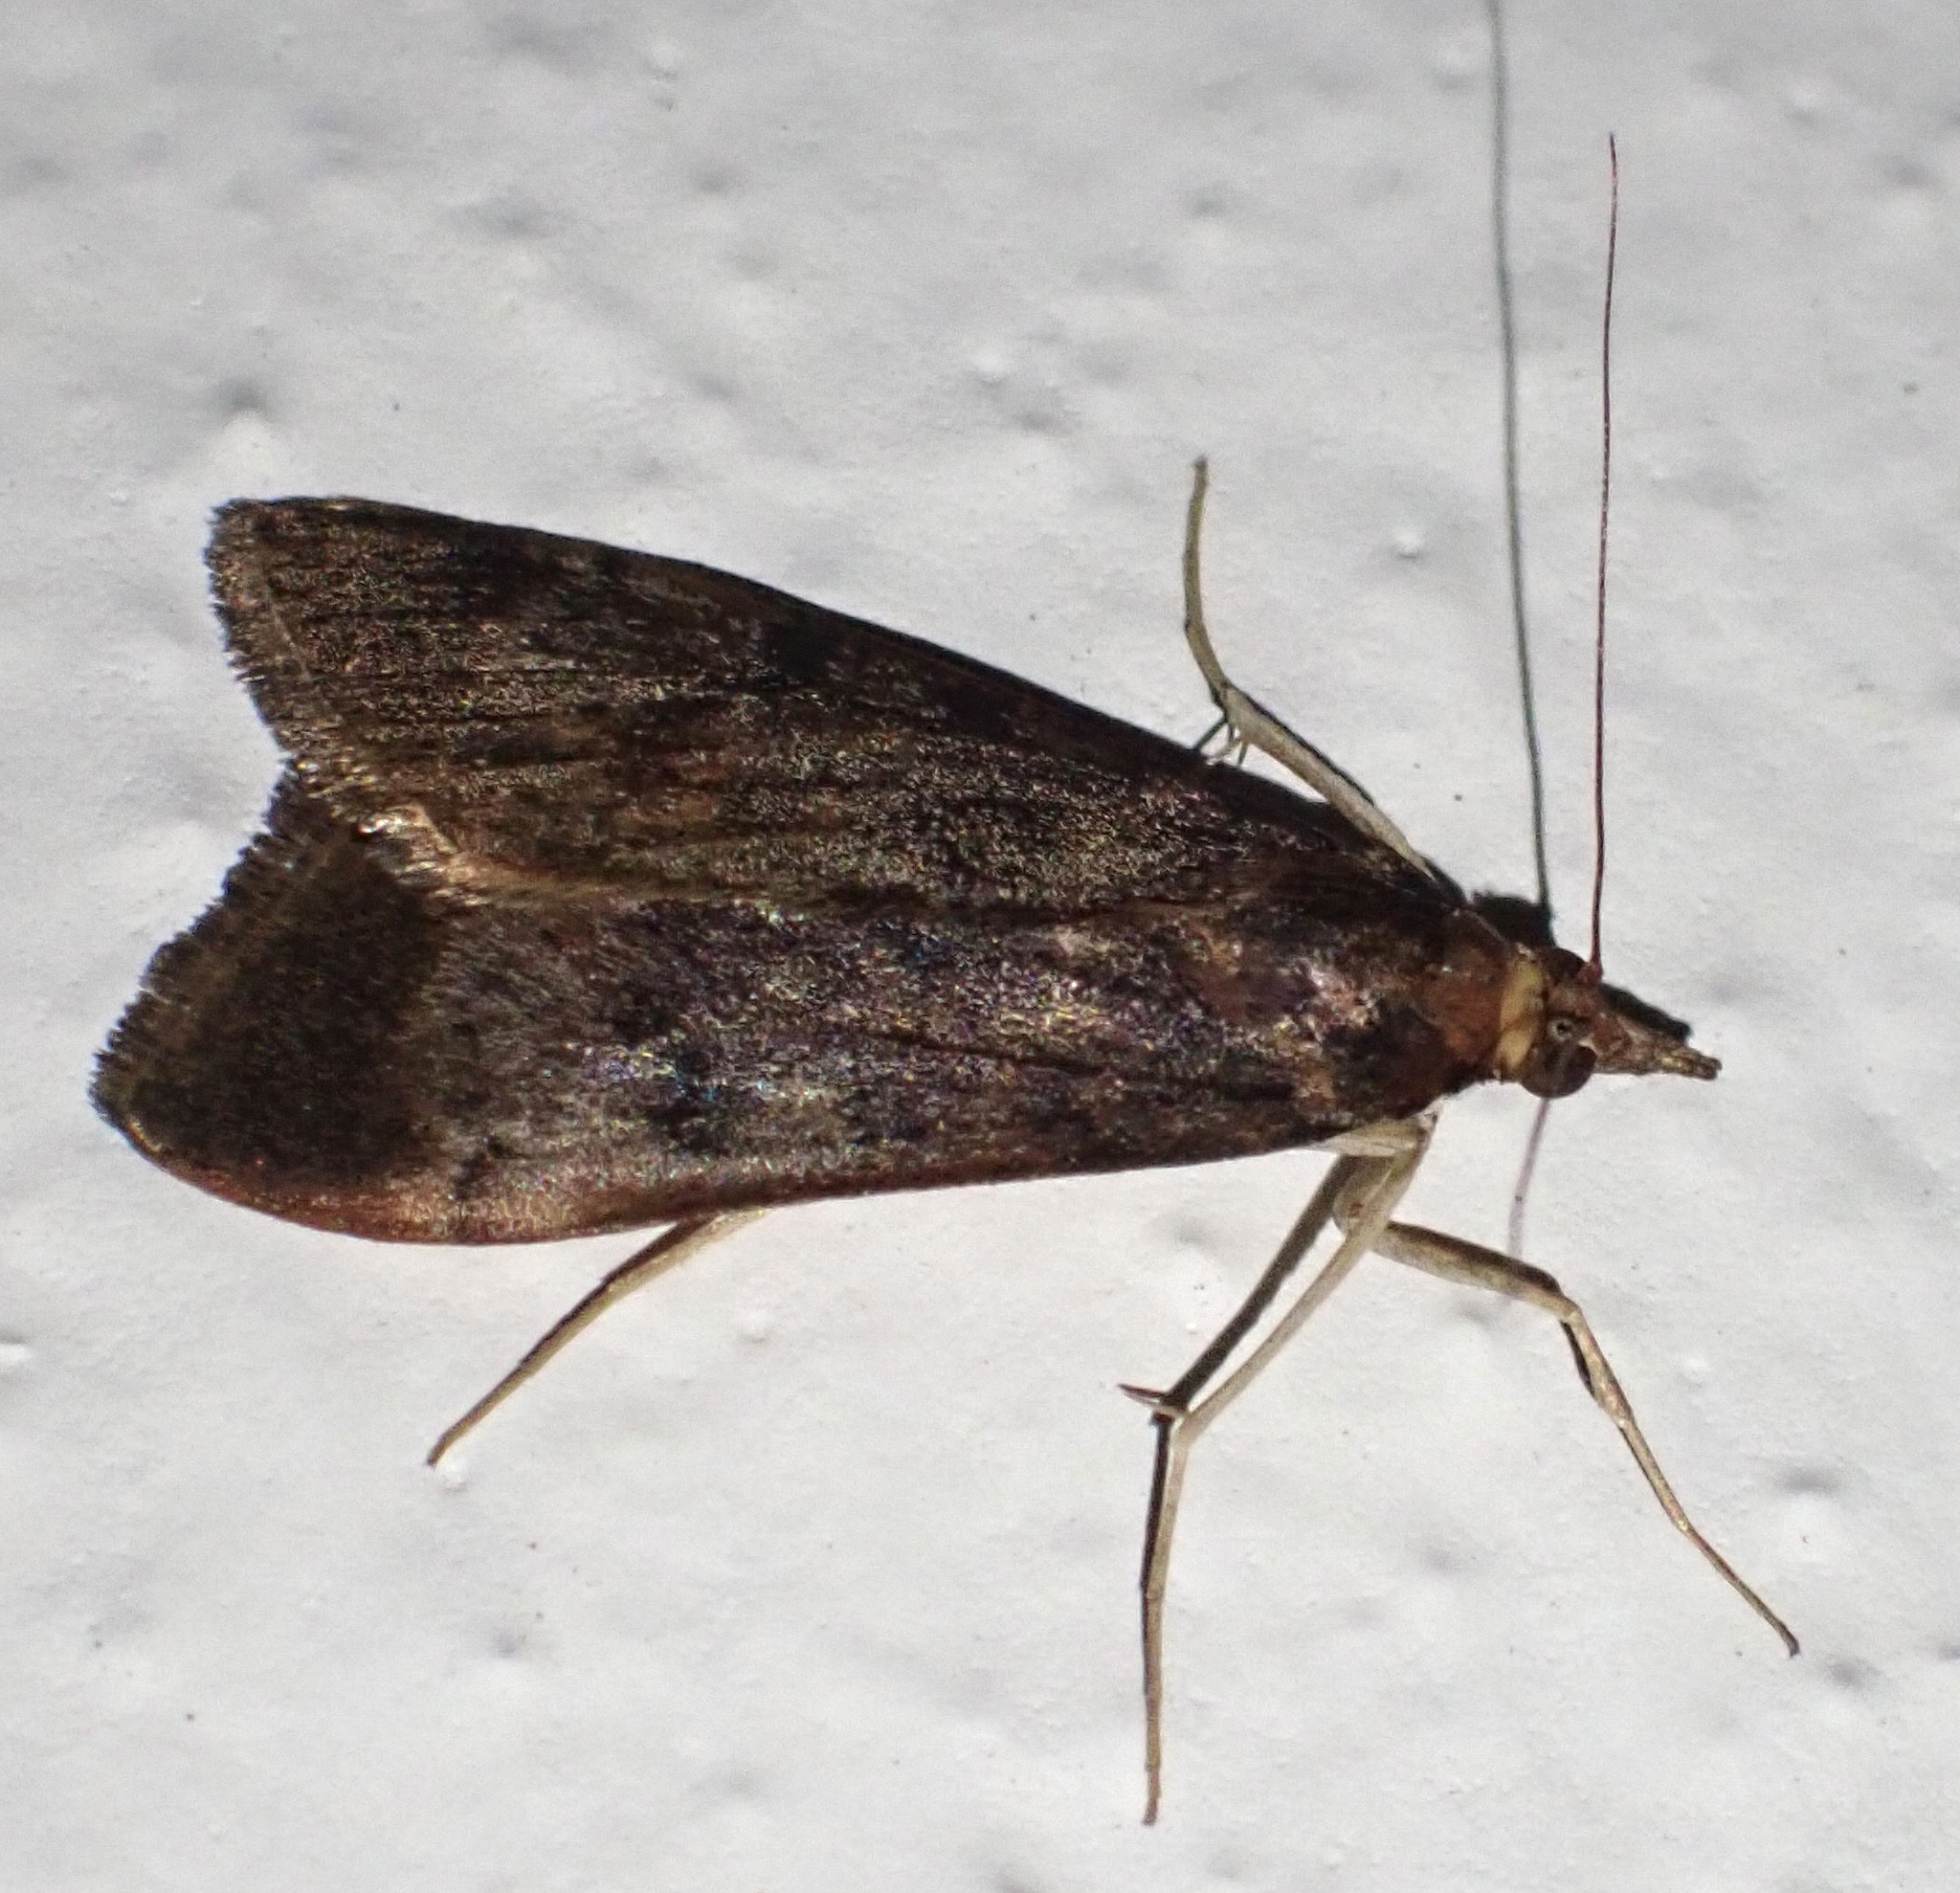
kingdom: Animalia
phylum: Arthropoda
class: Insecta
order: Lepidoptera
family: Crambidae
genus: Uresiphita
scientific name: Uresiphita gilvata
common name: Yellow-underwing pearl
